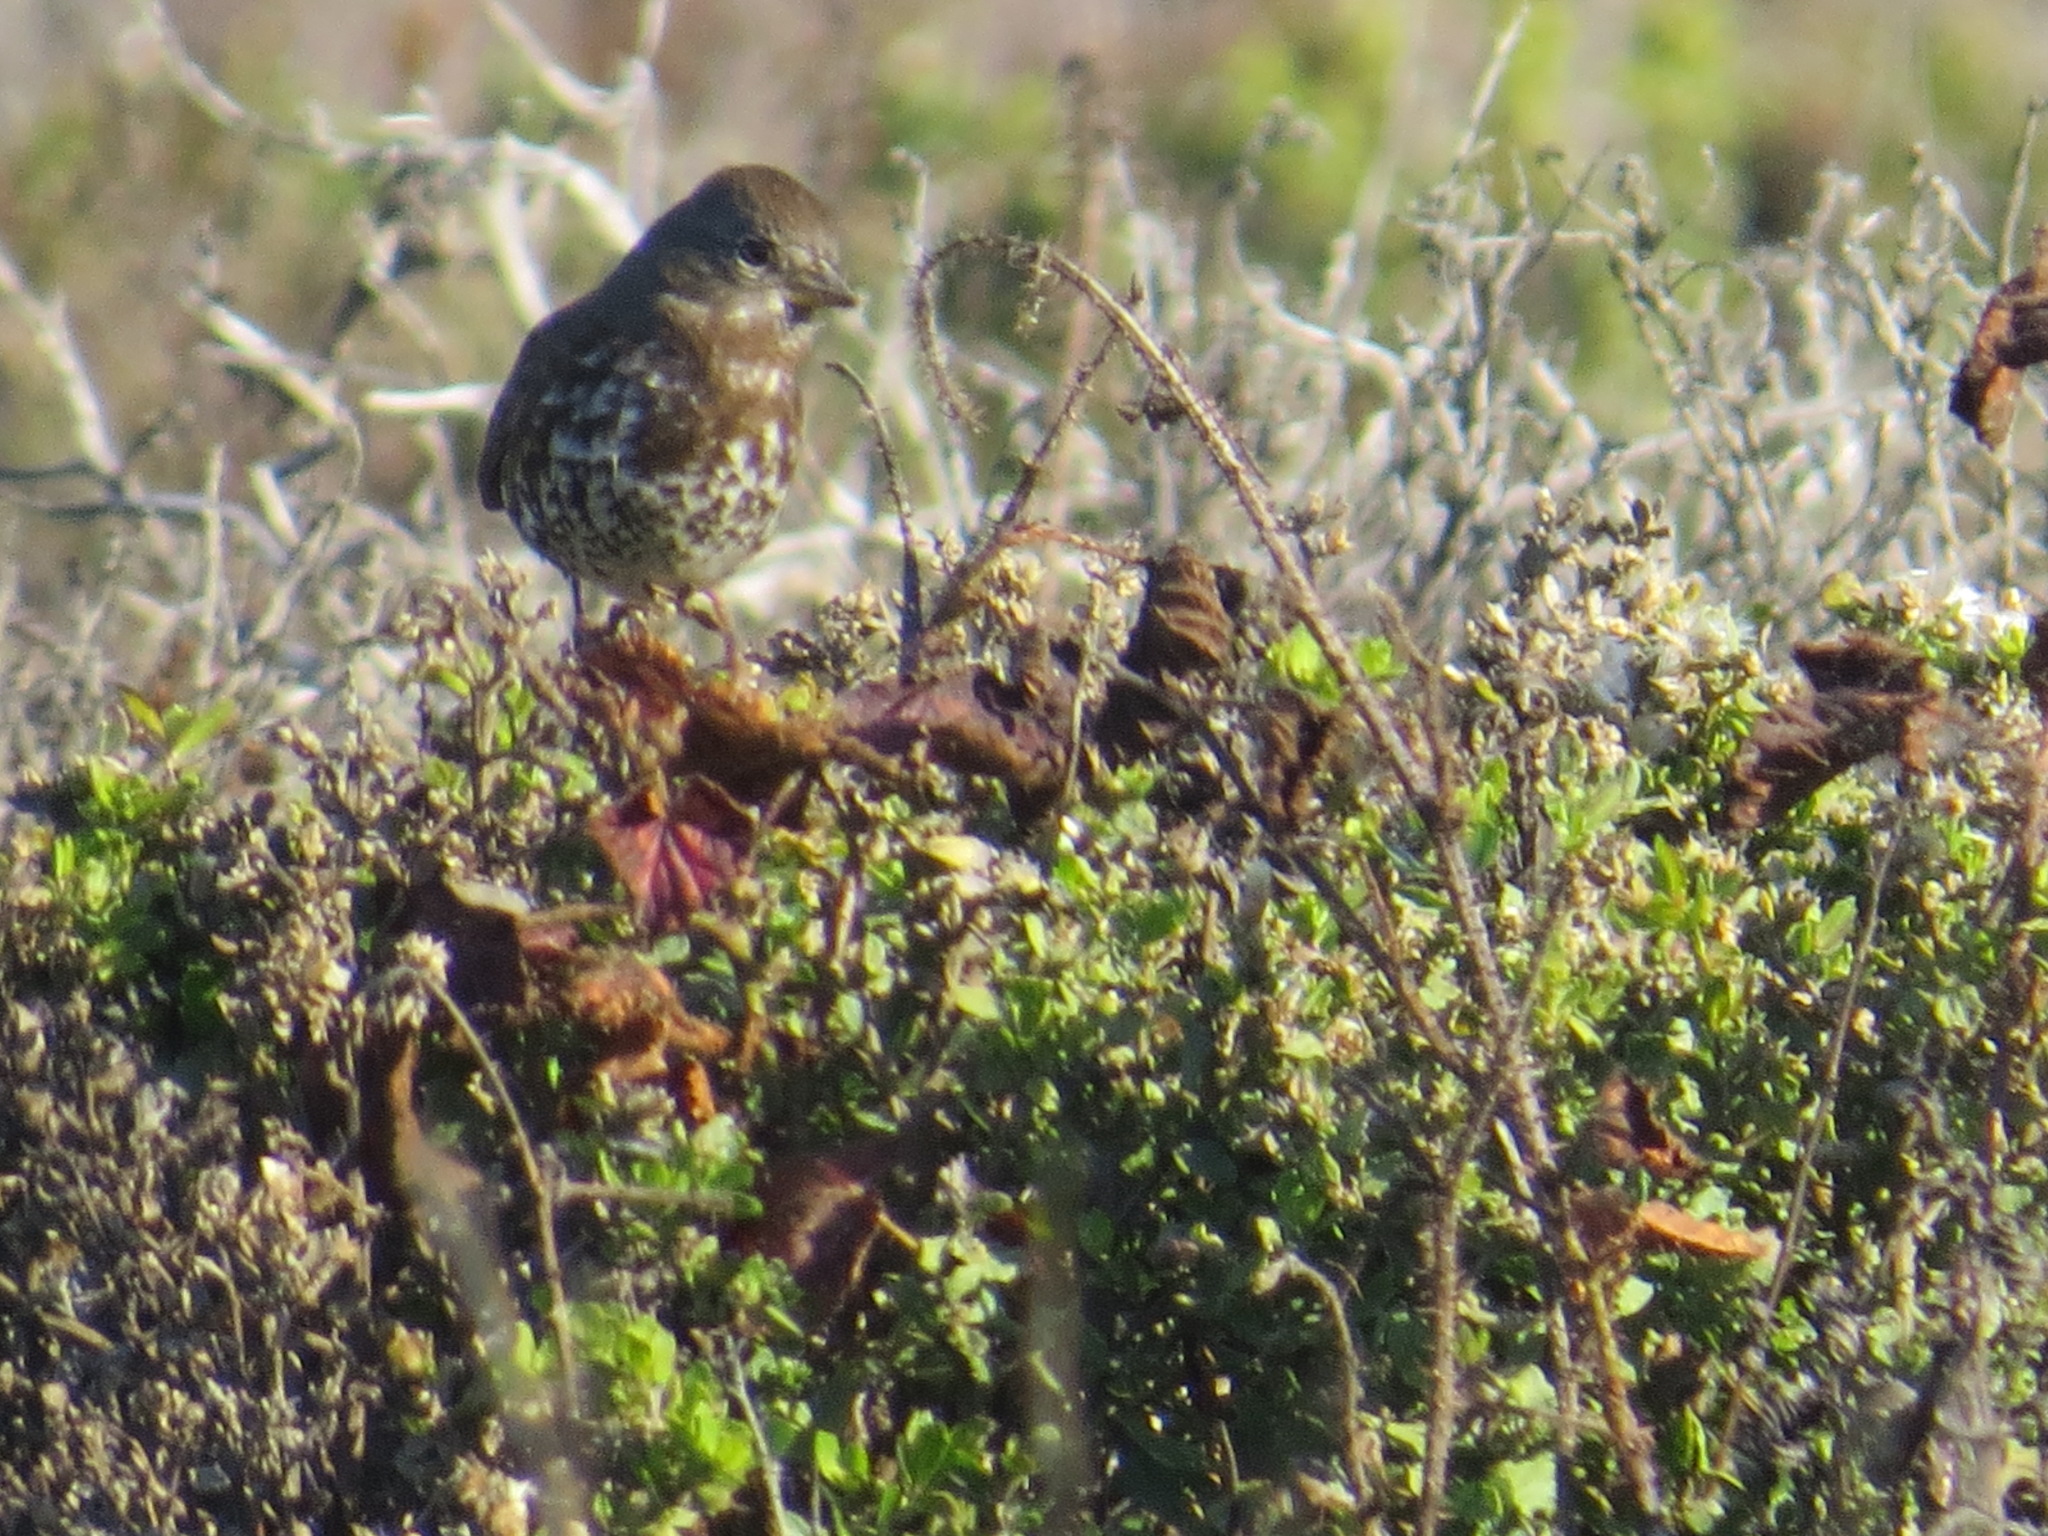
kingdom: Animalia
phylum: Chordata
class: Aves
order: Passeriformes
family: Passerellidae
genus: Passerella
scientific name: Passerella iliaca
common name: Fox sparrow
